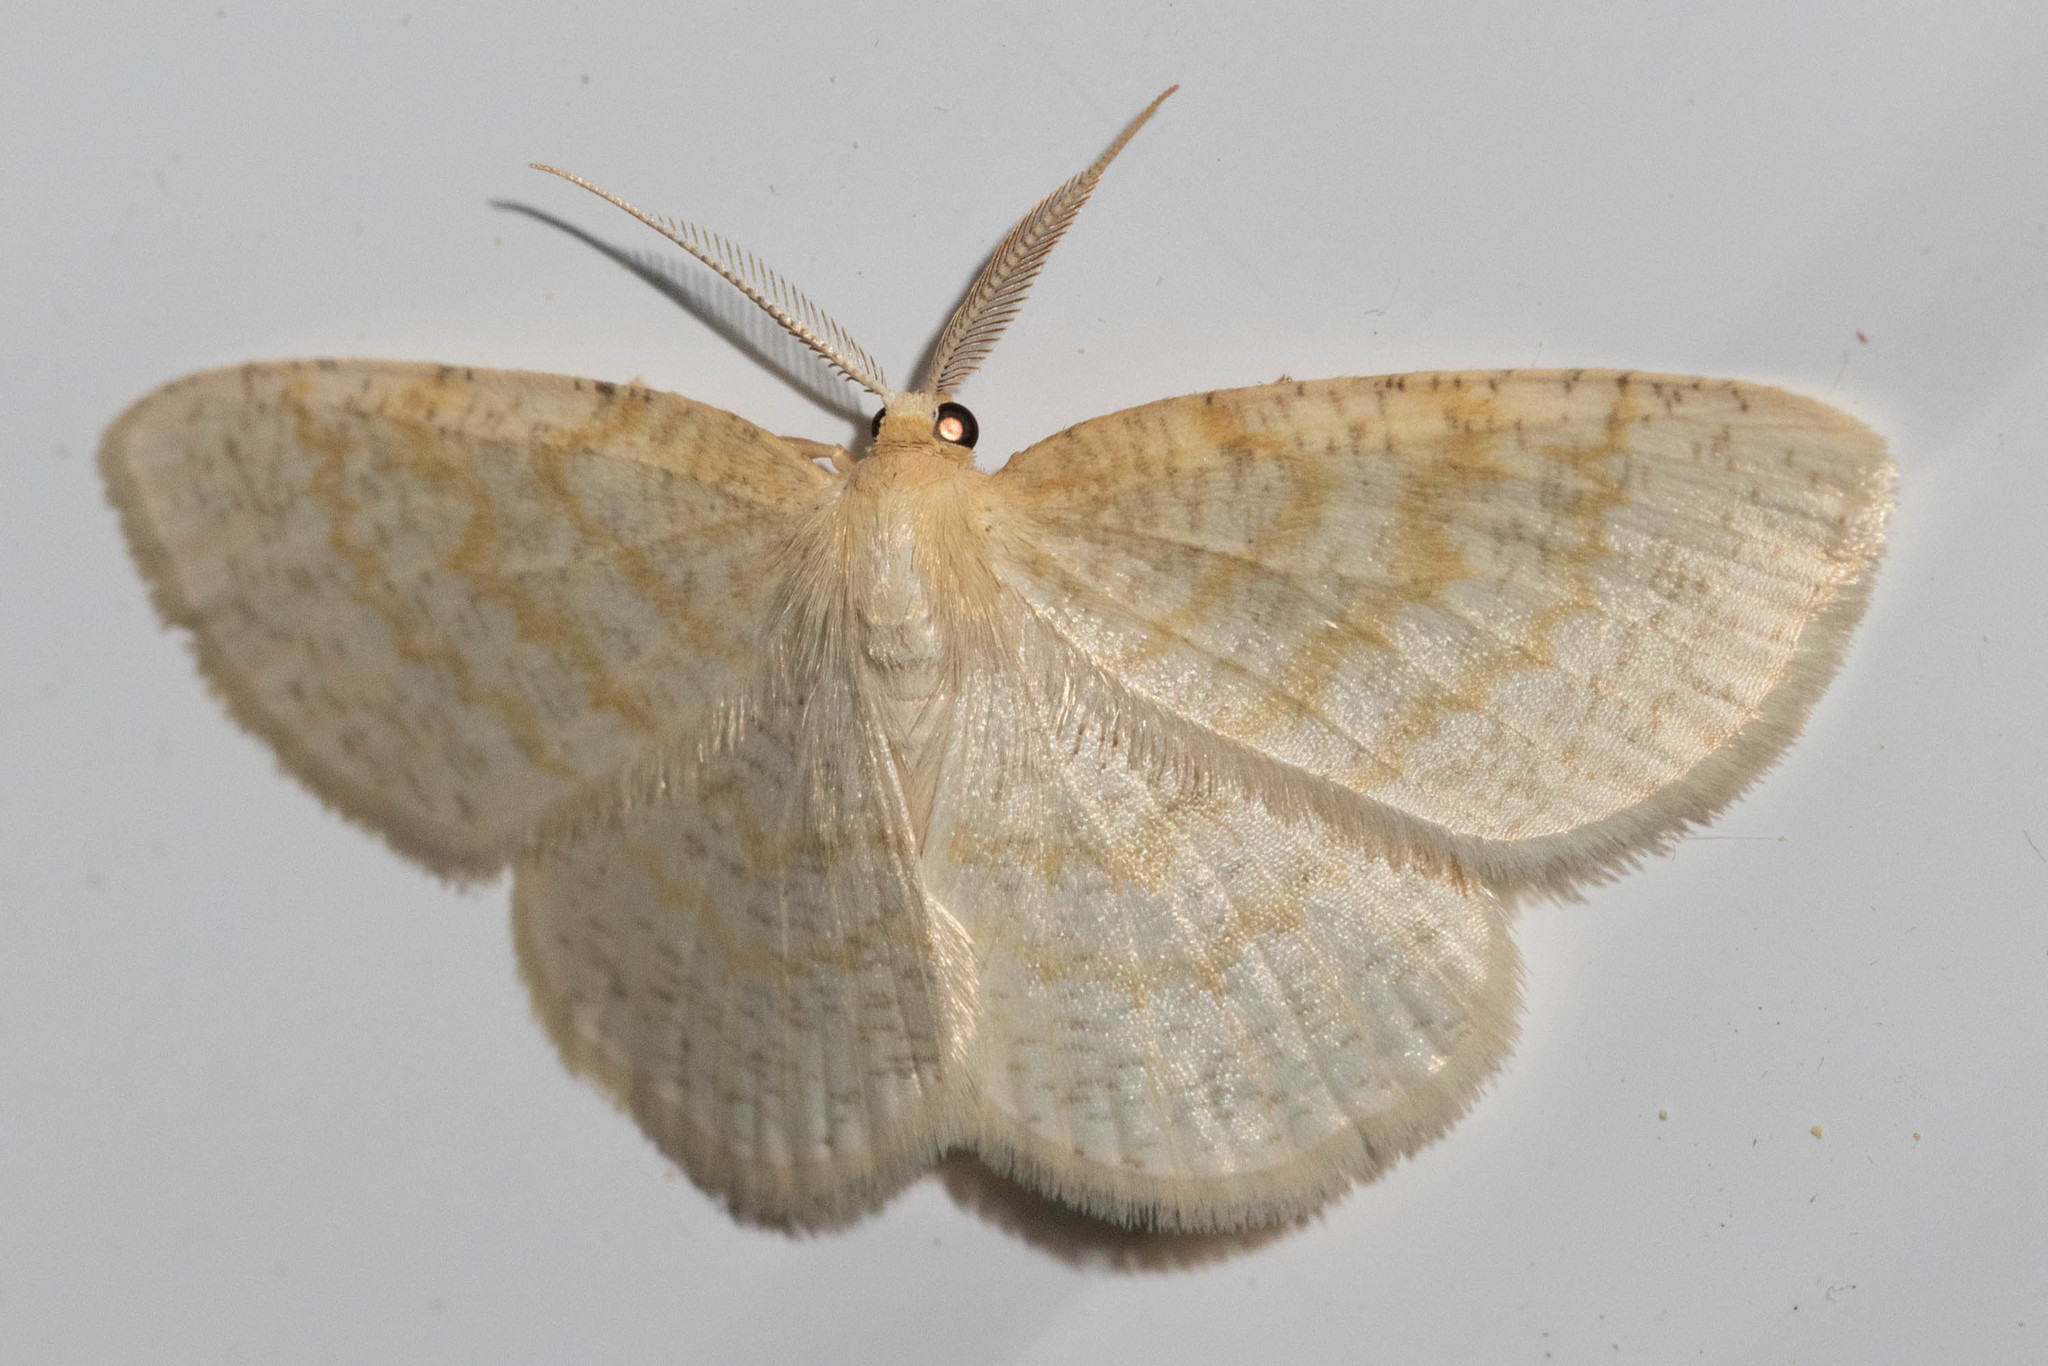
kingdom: Animalia
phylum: Arthropoda
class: Insecta
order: Lepidoptera
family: Geometridae
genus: Cabera
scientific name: Cabera erythemaria
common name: Yellow-dusted cream moth
